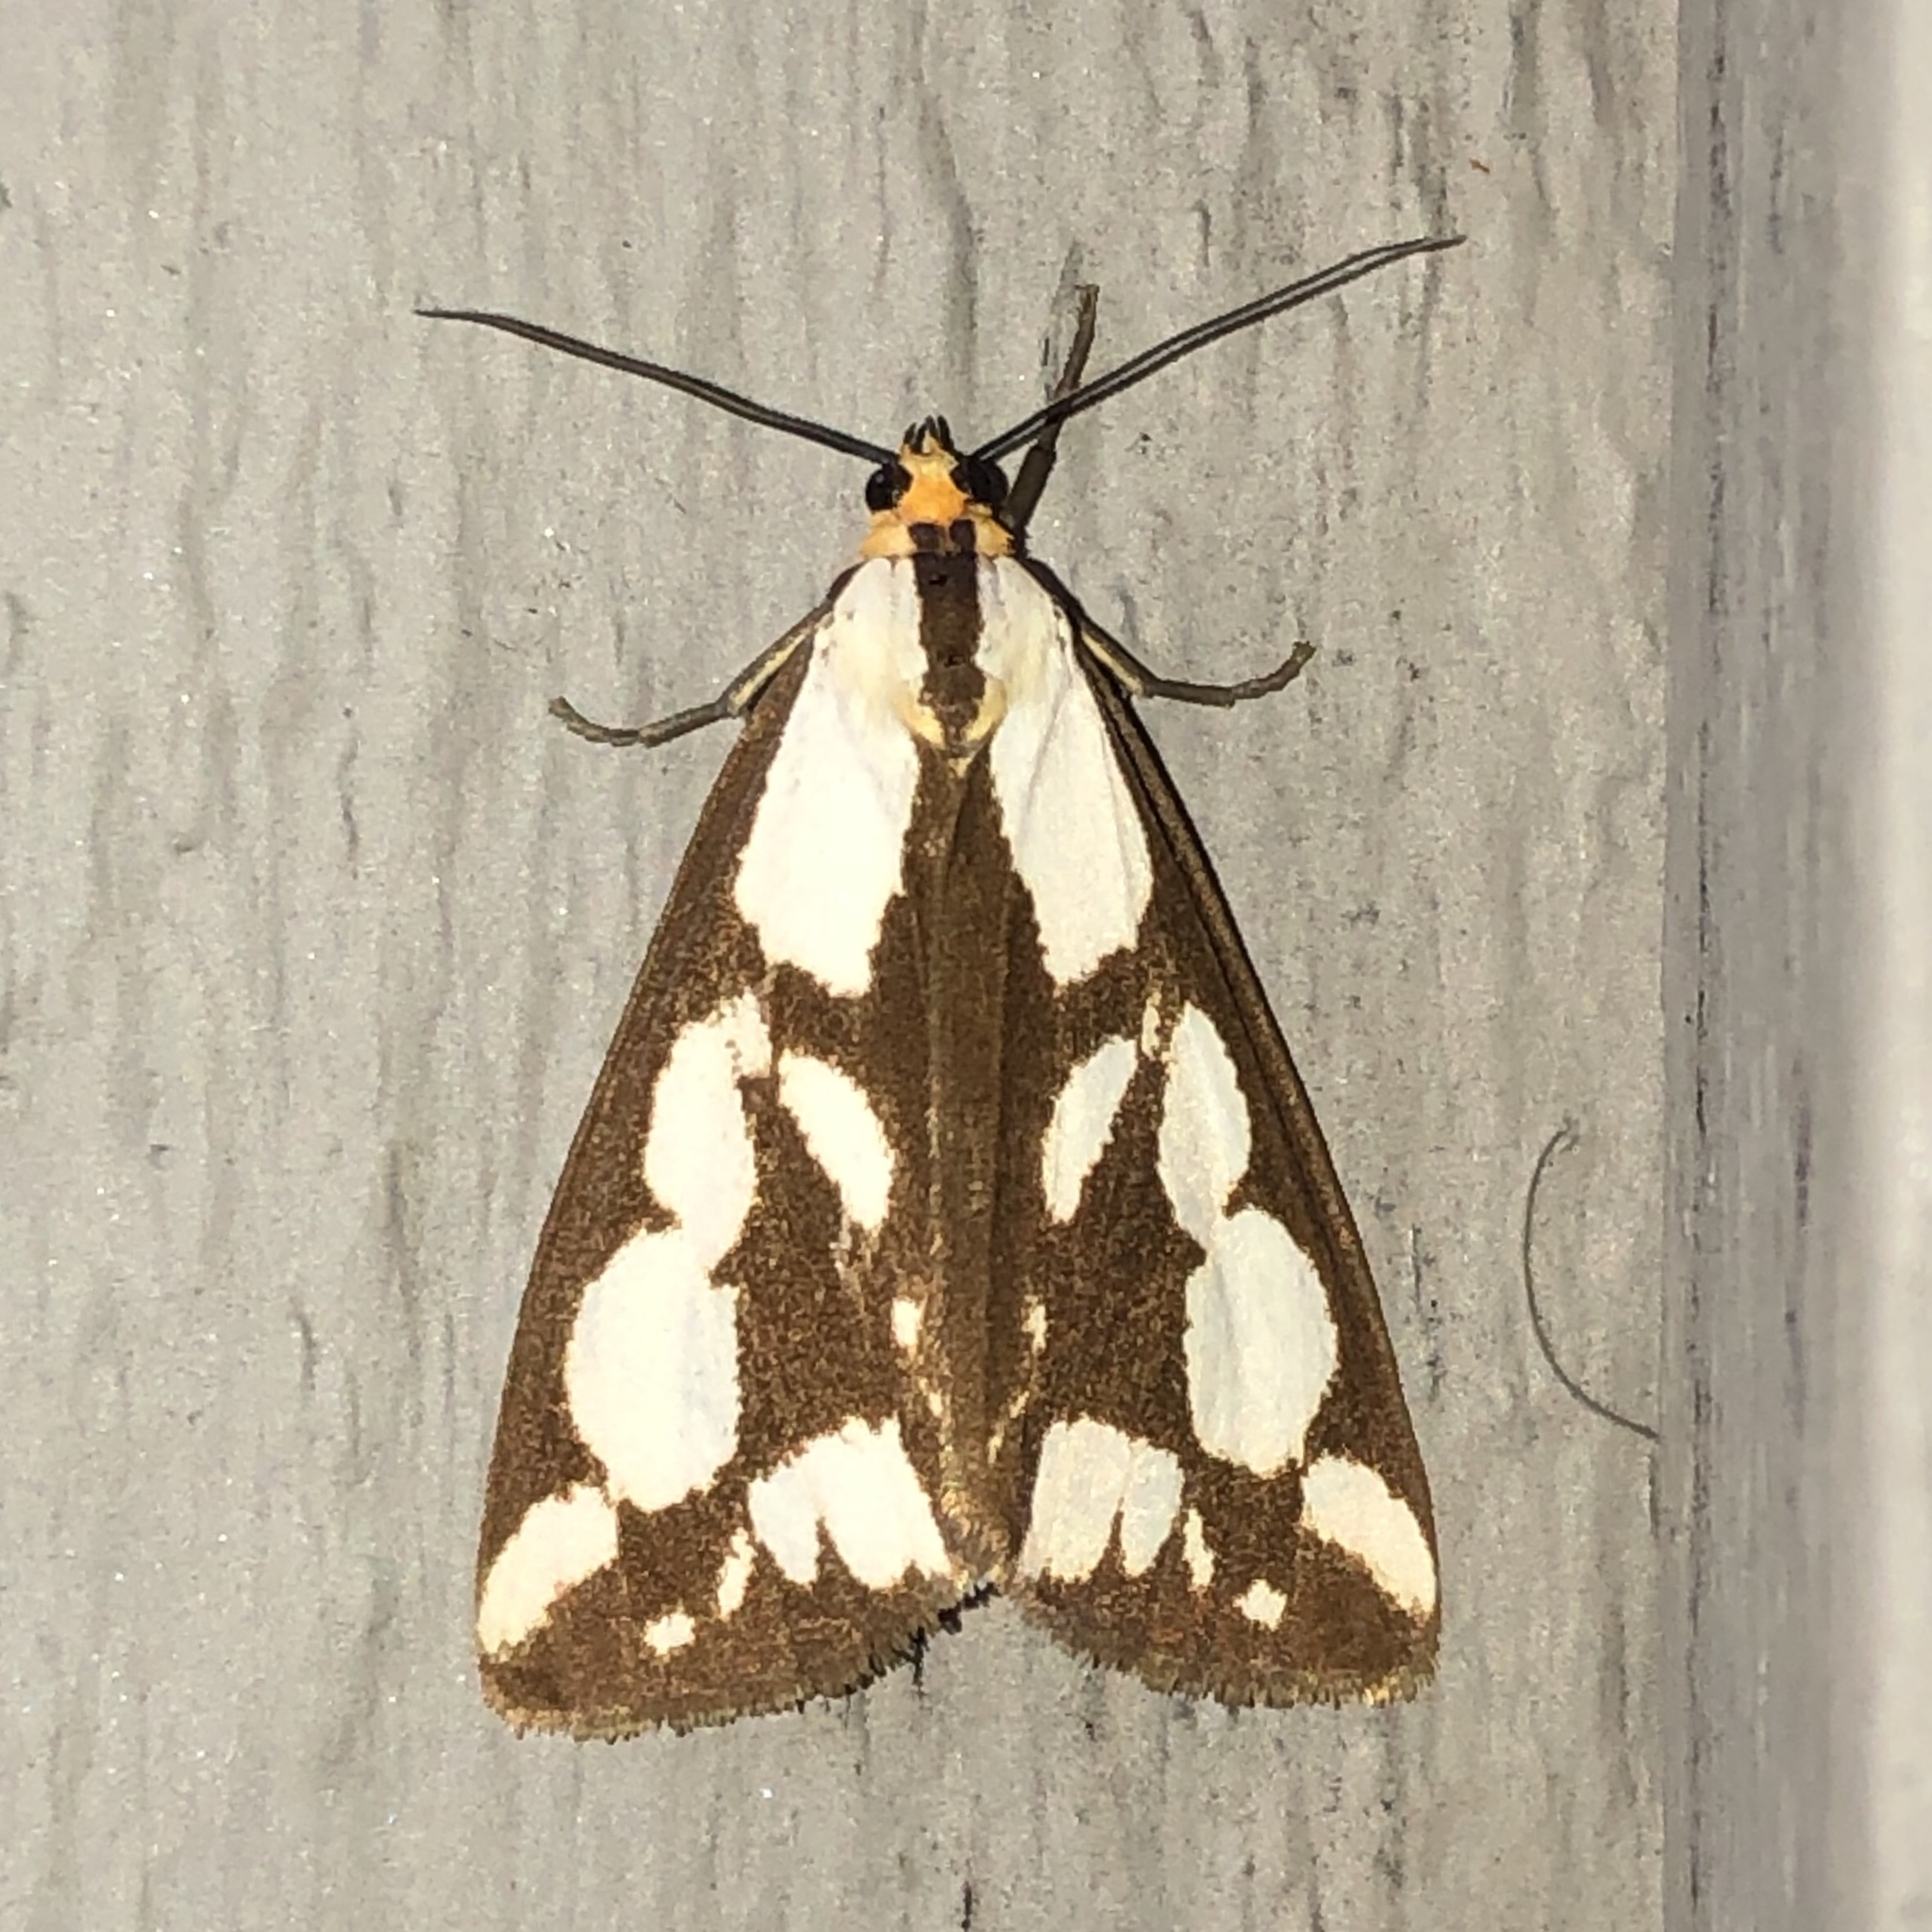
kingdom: Animalia
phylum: Arthropoda
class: Insecta
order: Lepidoptera
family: Erebidae
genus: Haploa
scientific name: Haploa confusa
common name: Confused haploa moth
